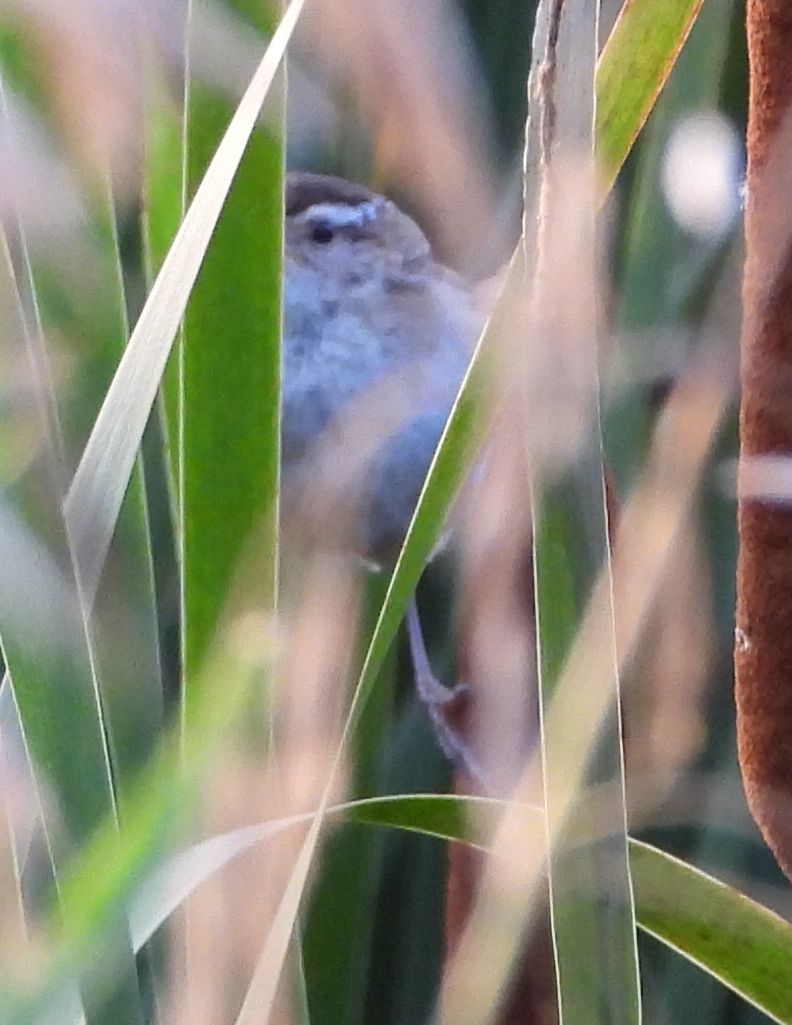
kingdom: Animalia
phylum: Chordata
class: Aves
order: Passeriformes
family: Troglodytidae
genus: Cistothorus
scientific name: Cistothorus palustris
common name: Marsh wren
